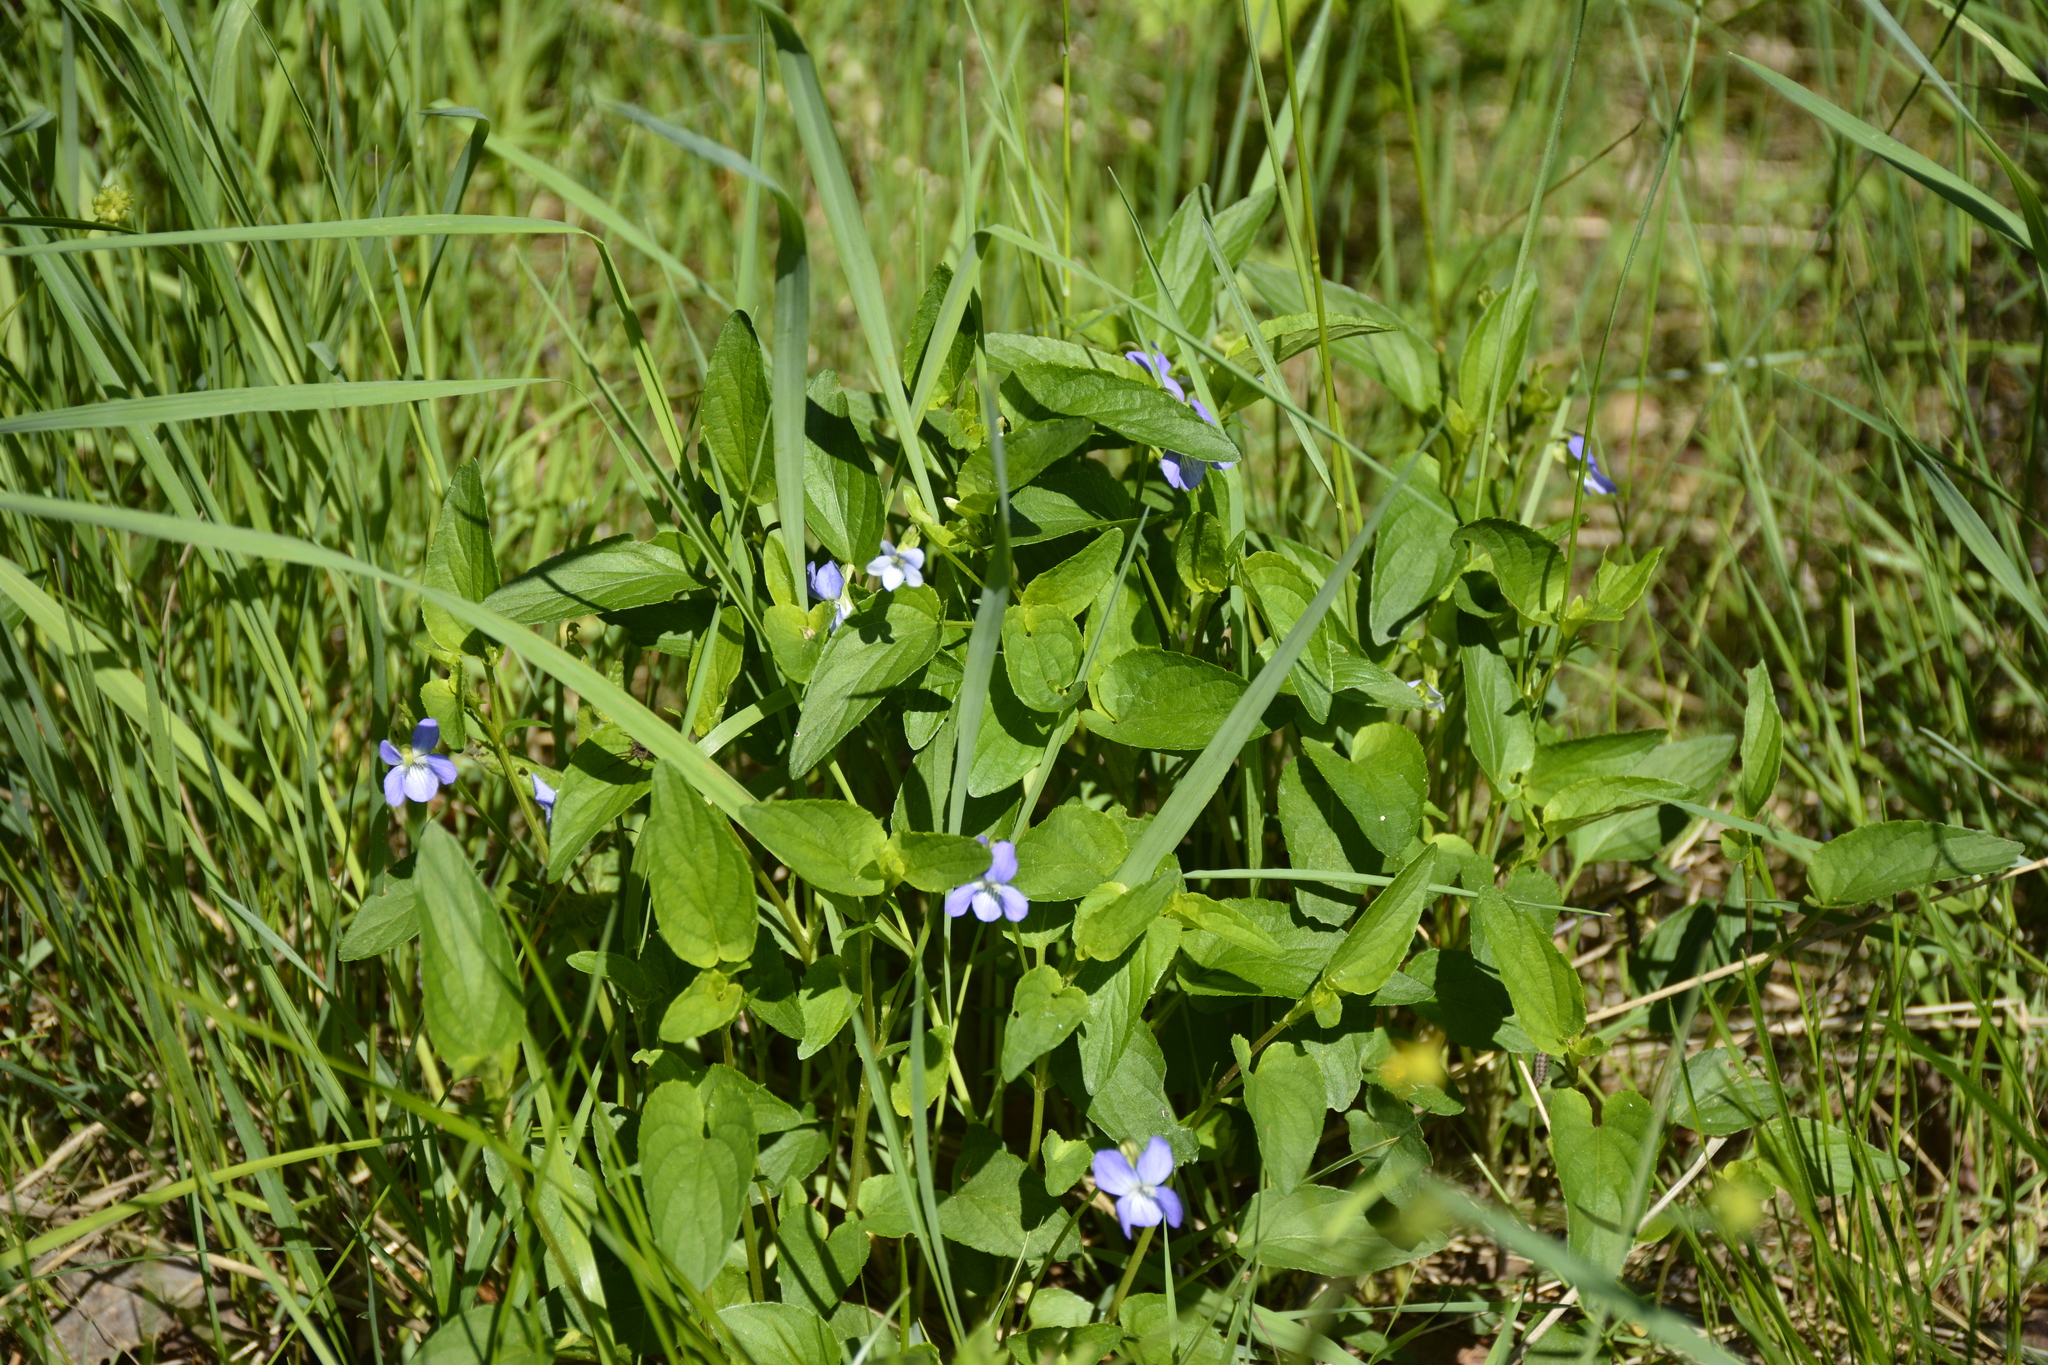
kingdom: Plantae
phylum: Tracheophyta
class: Magnoliopsida
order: Malpighiales
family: Violaceae
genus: Viola
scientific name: Viola canina
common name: Heath dog-violet
